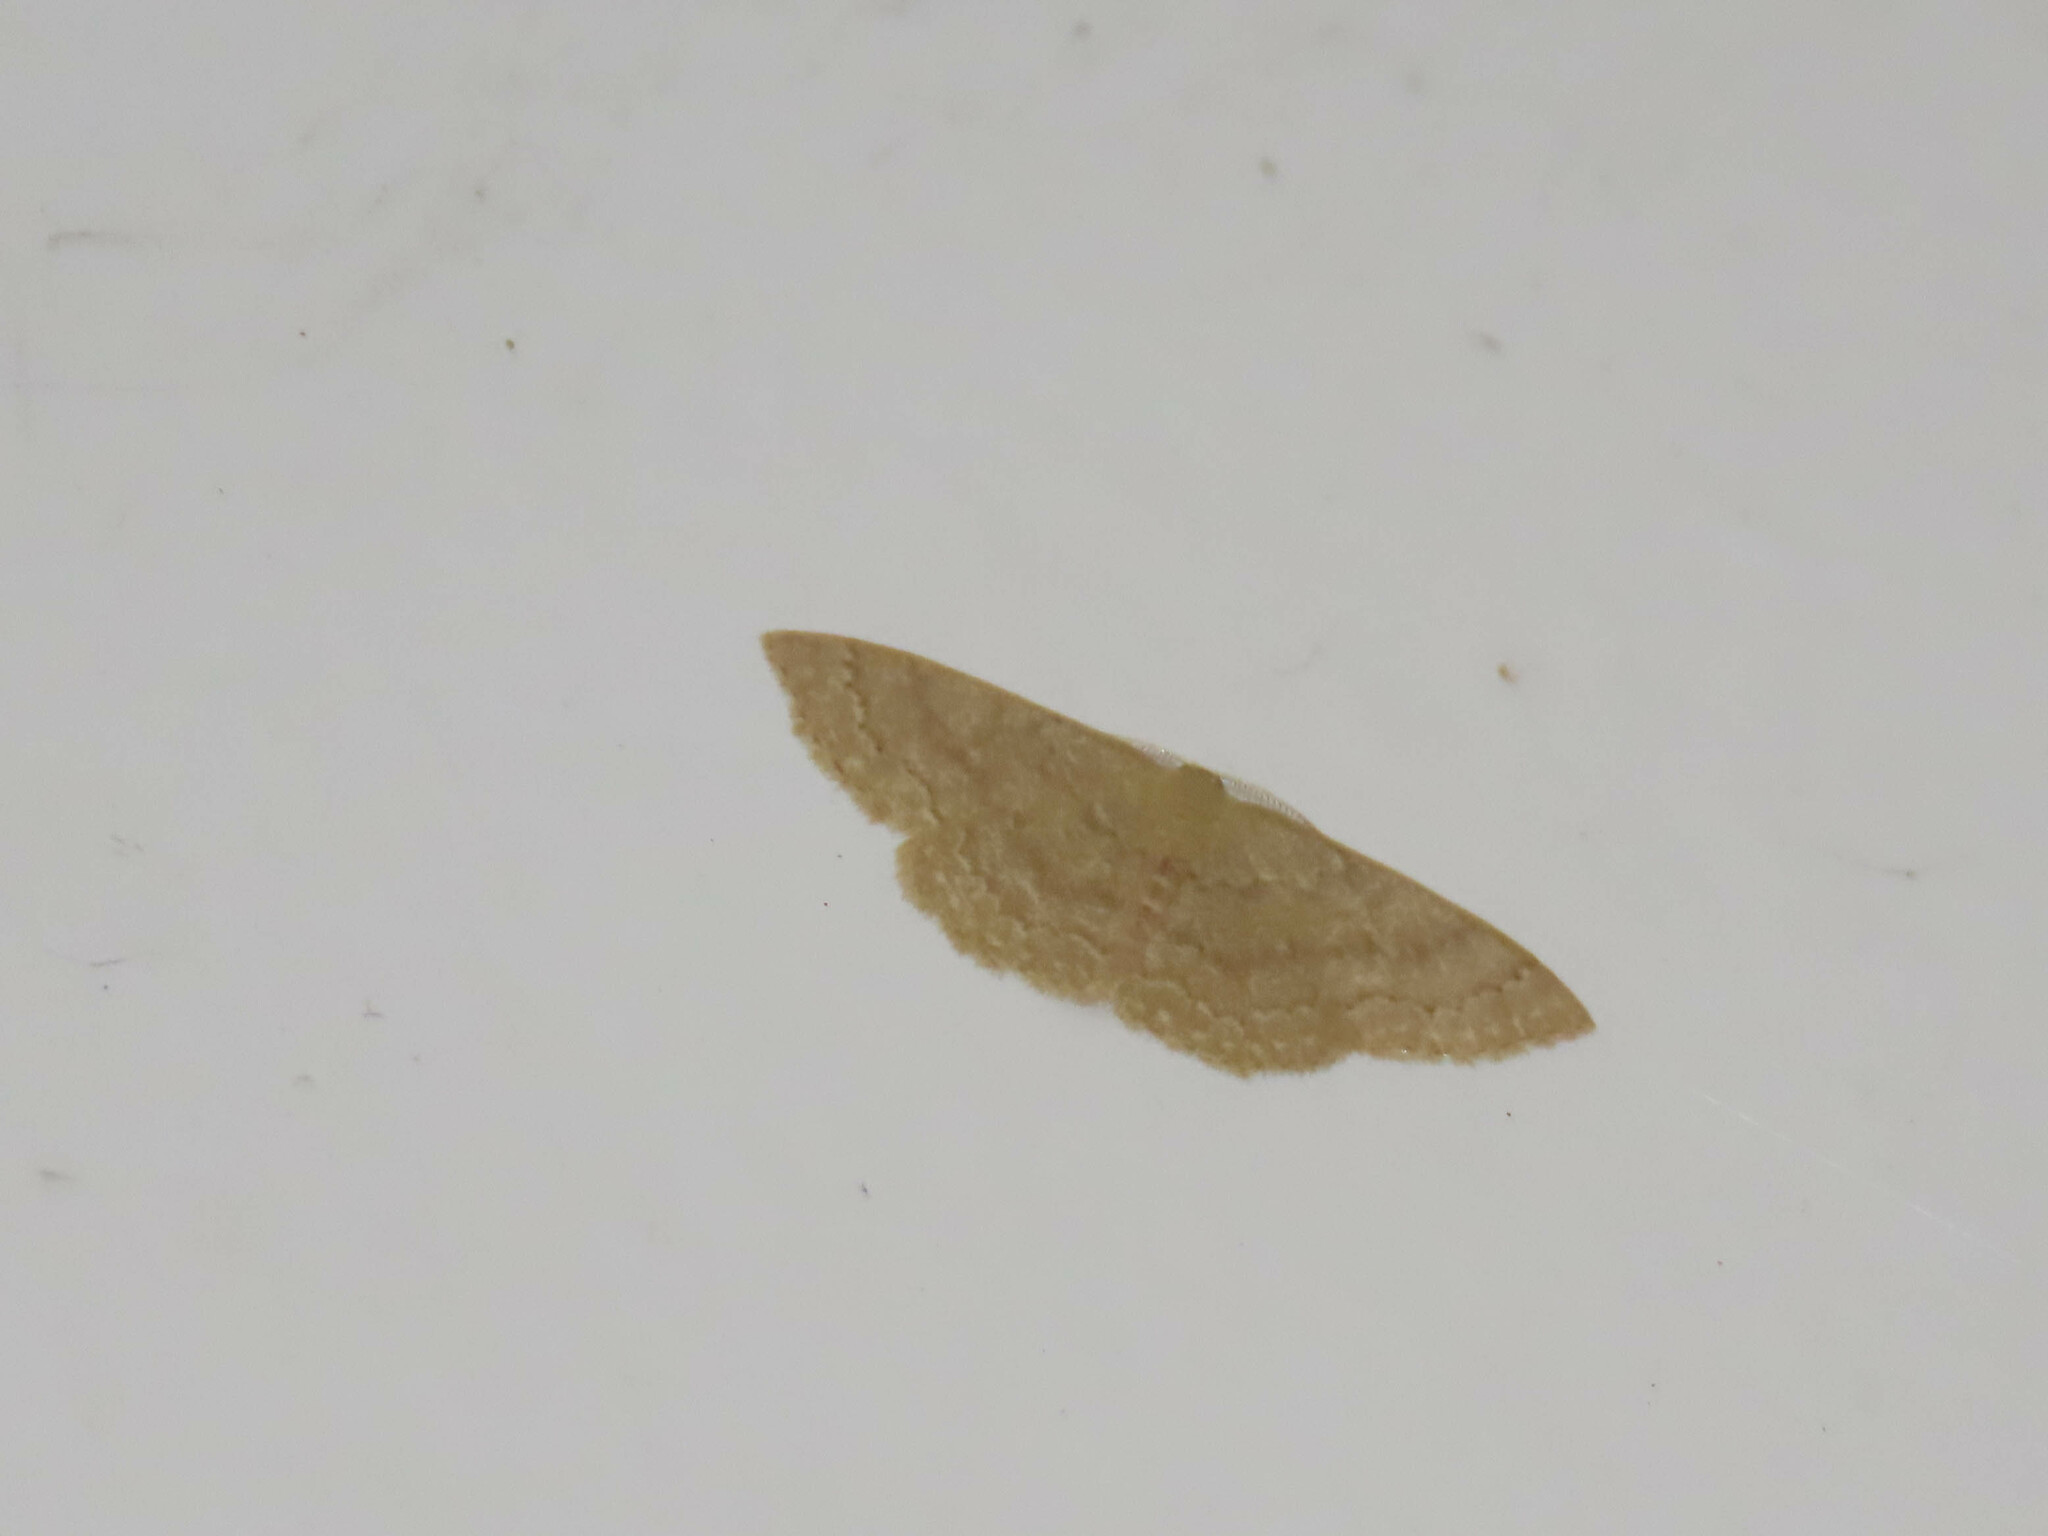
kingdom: Animalia
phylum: Arthropoda
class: Insecta
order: Lepidoptera
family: Geometridae
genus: Pleuroprucha
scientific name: Pleuroprucha insulsaria
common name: Common tan wave
